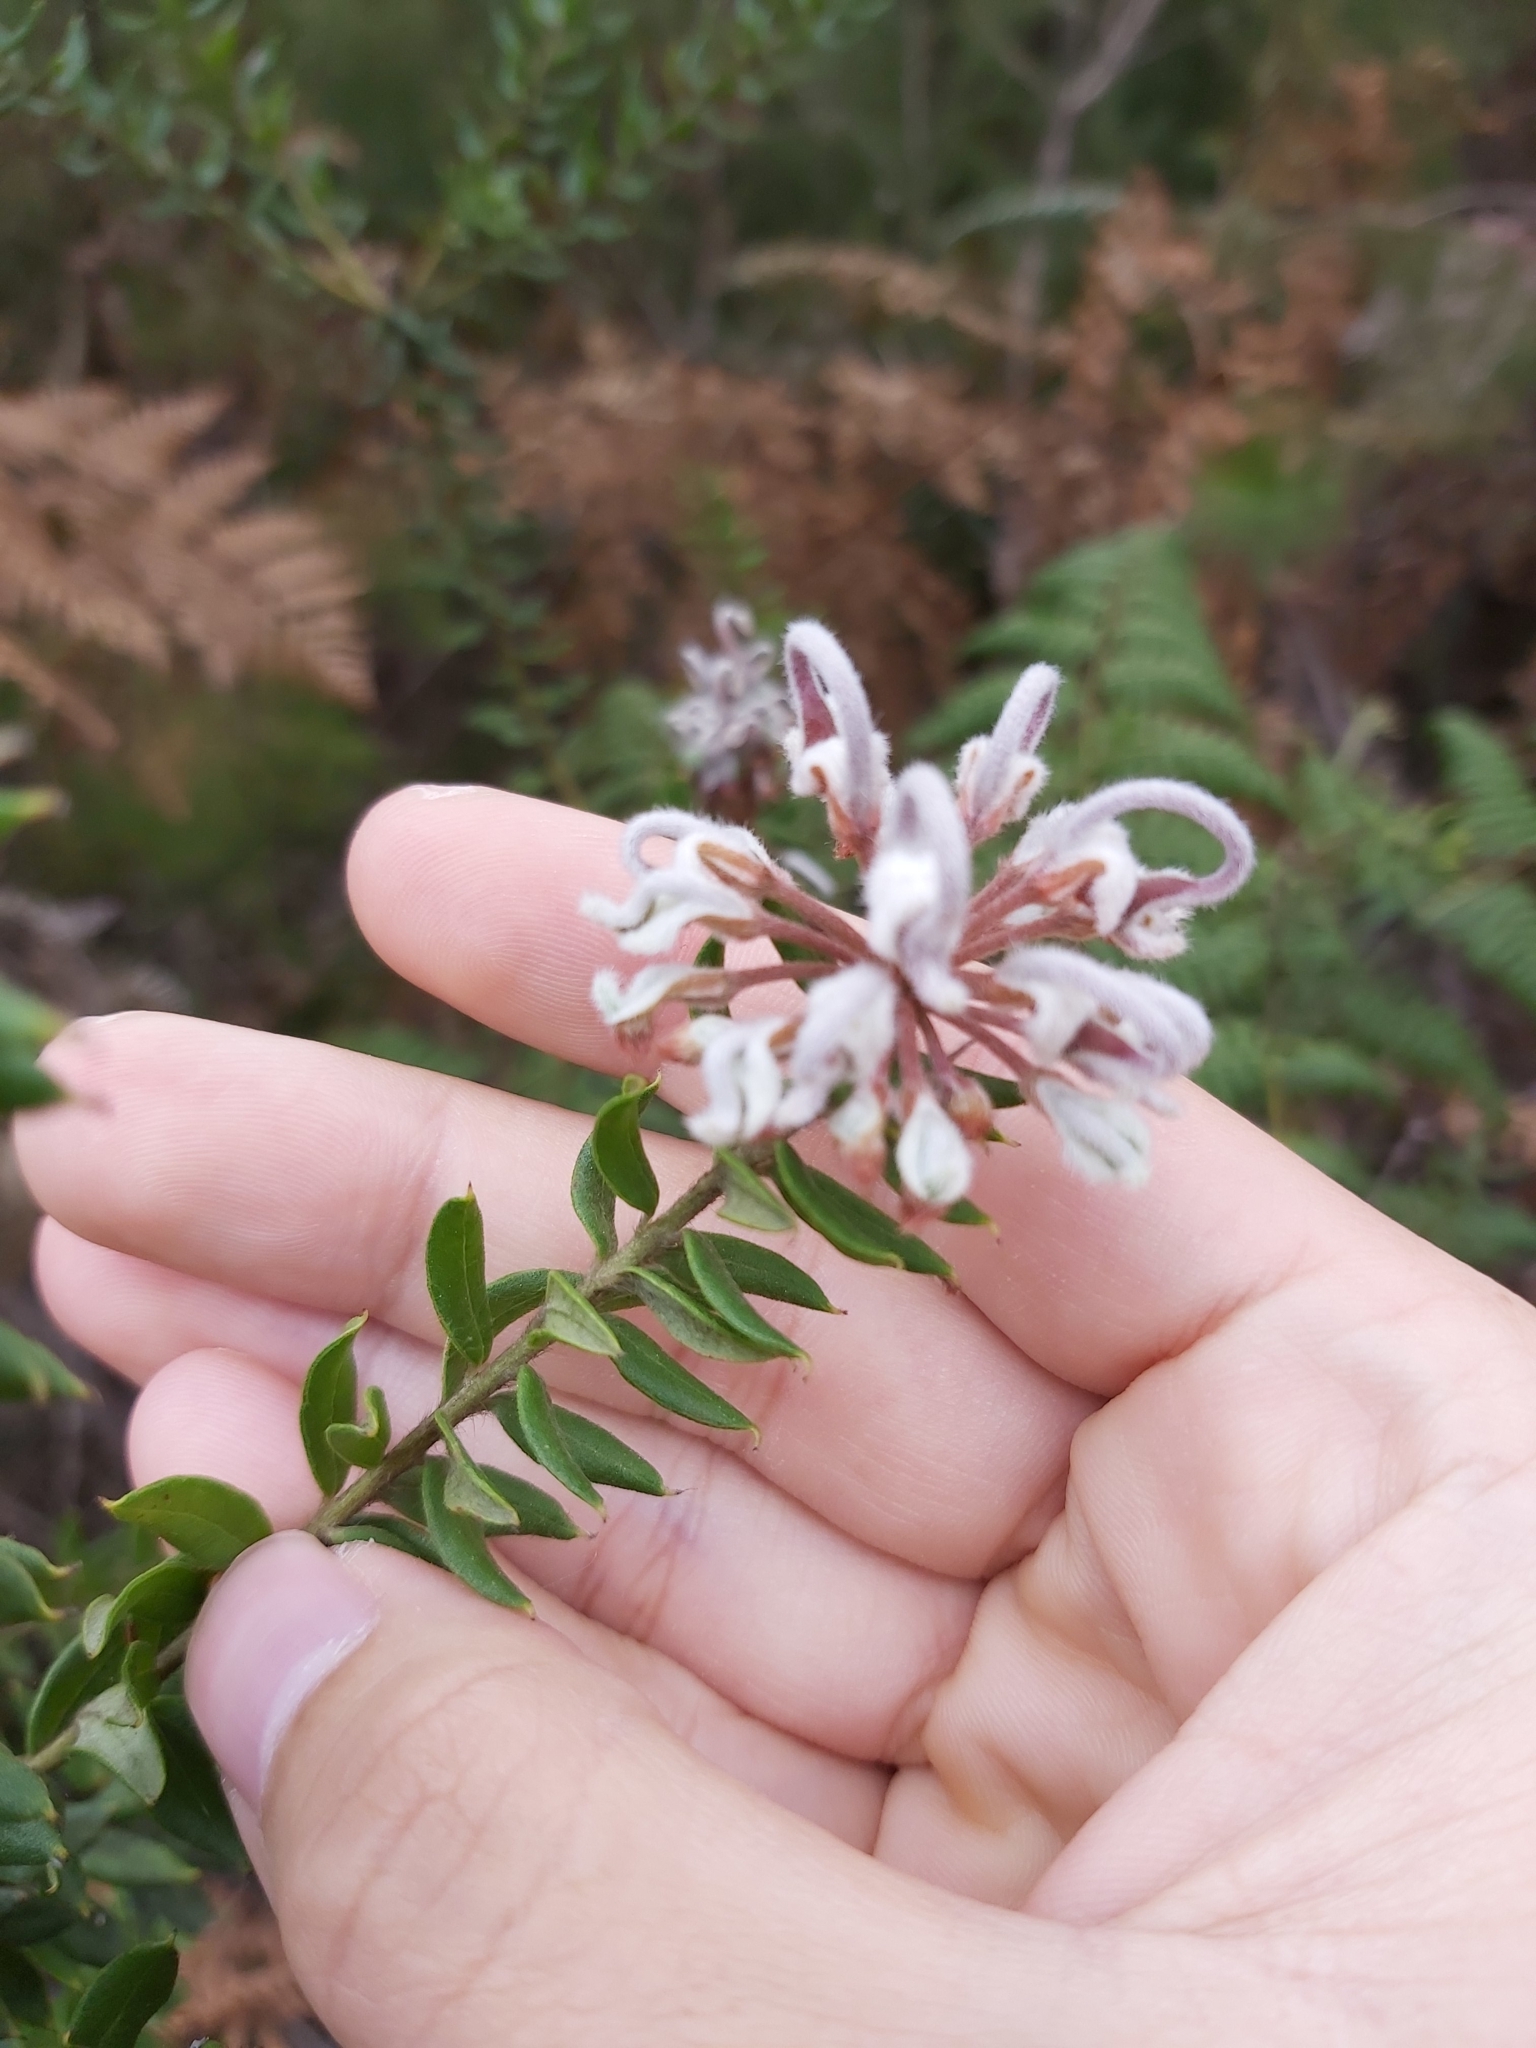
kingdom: Plantae
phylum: Tracheophyta
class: Magnoliopsida
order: Proteales
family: Proteaceae
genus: Grevillea
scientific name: Grevillea buxifolia
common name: Grey spiderflower
